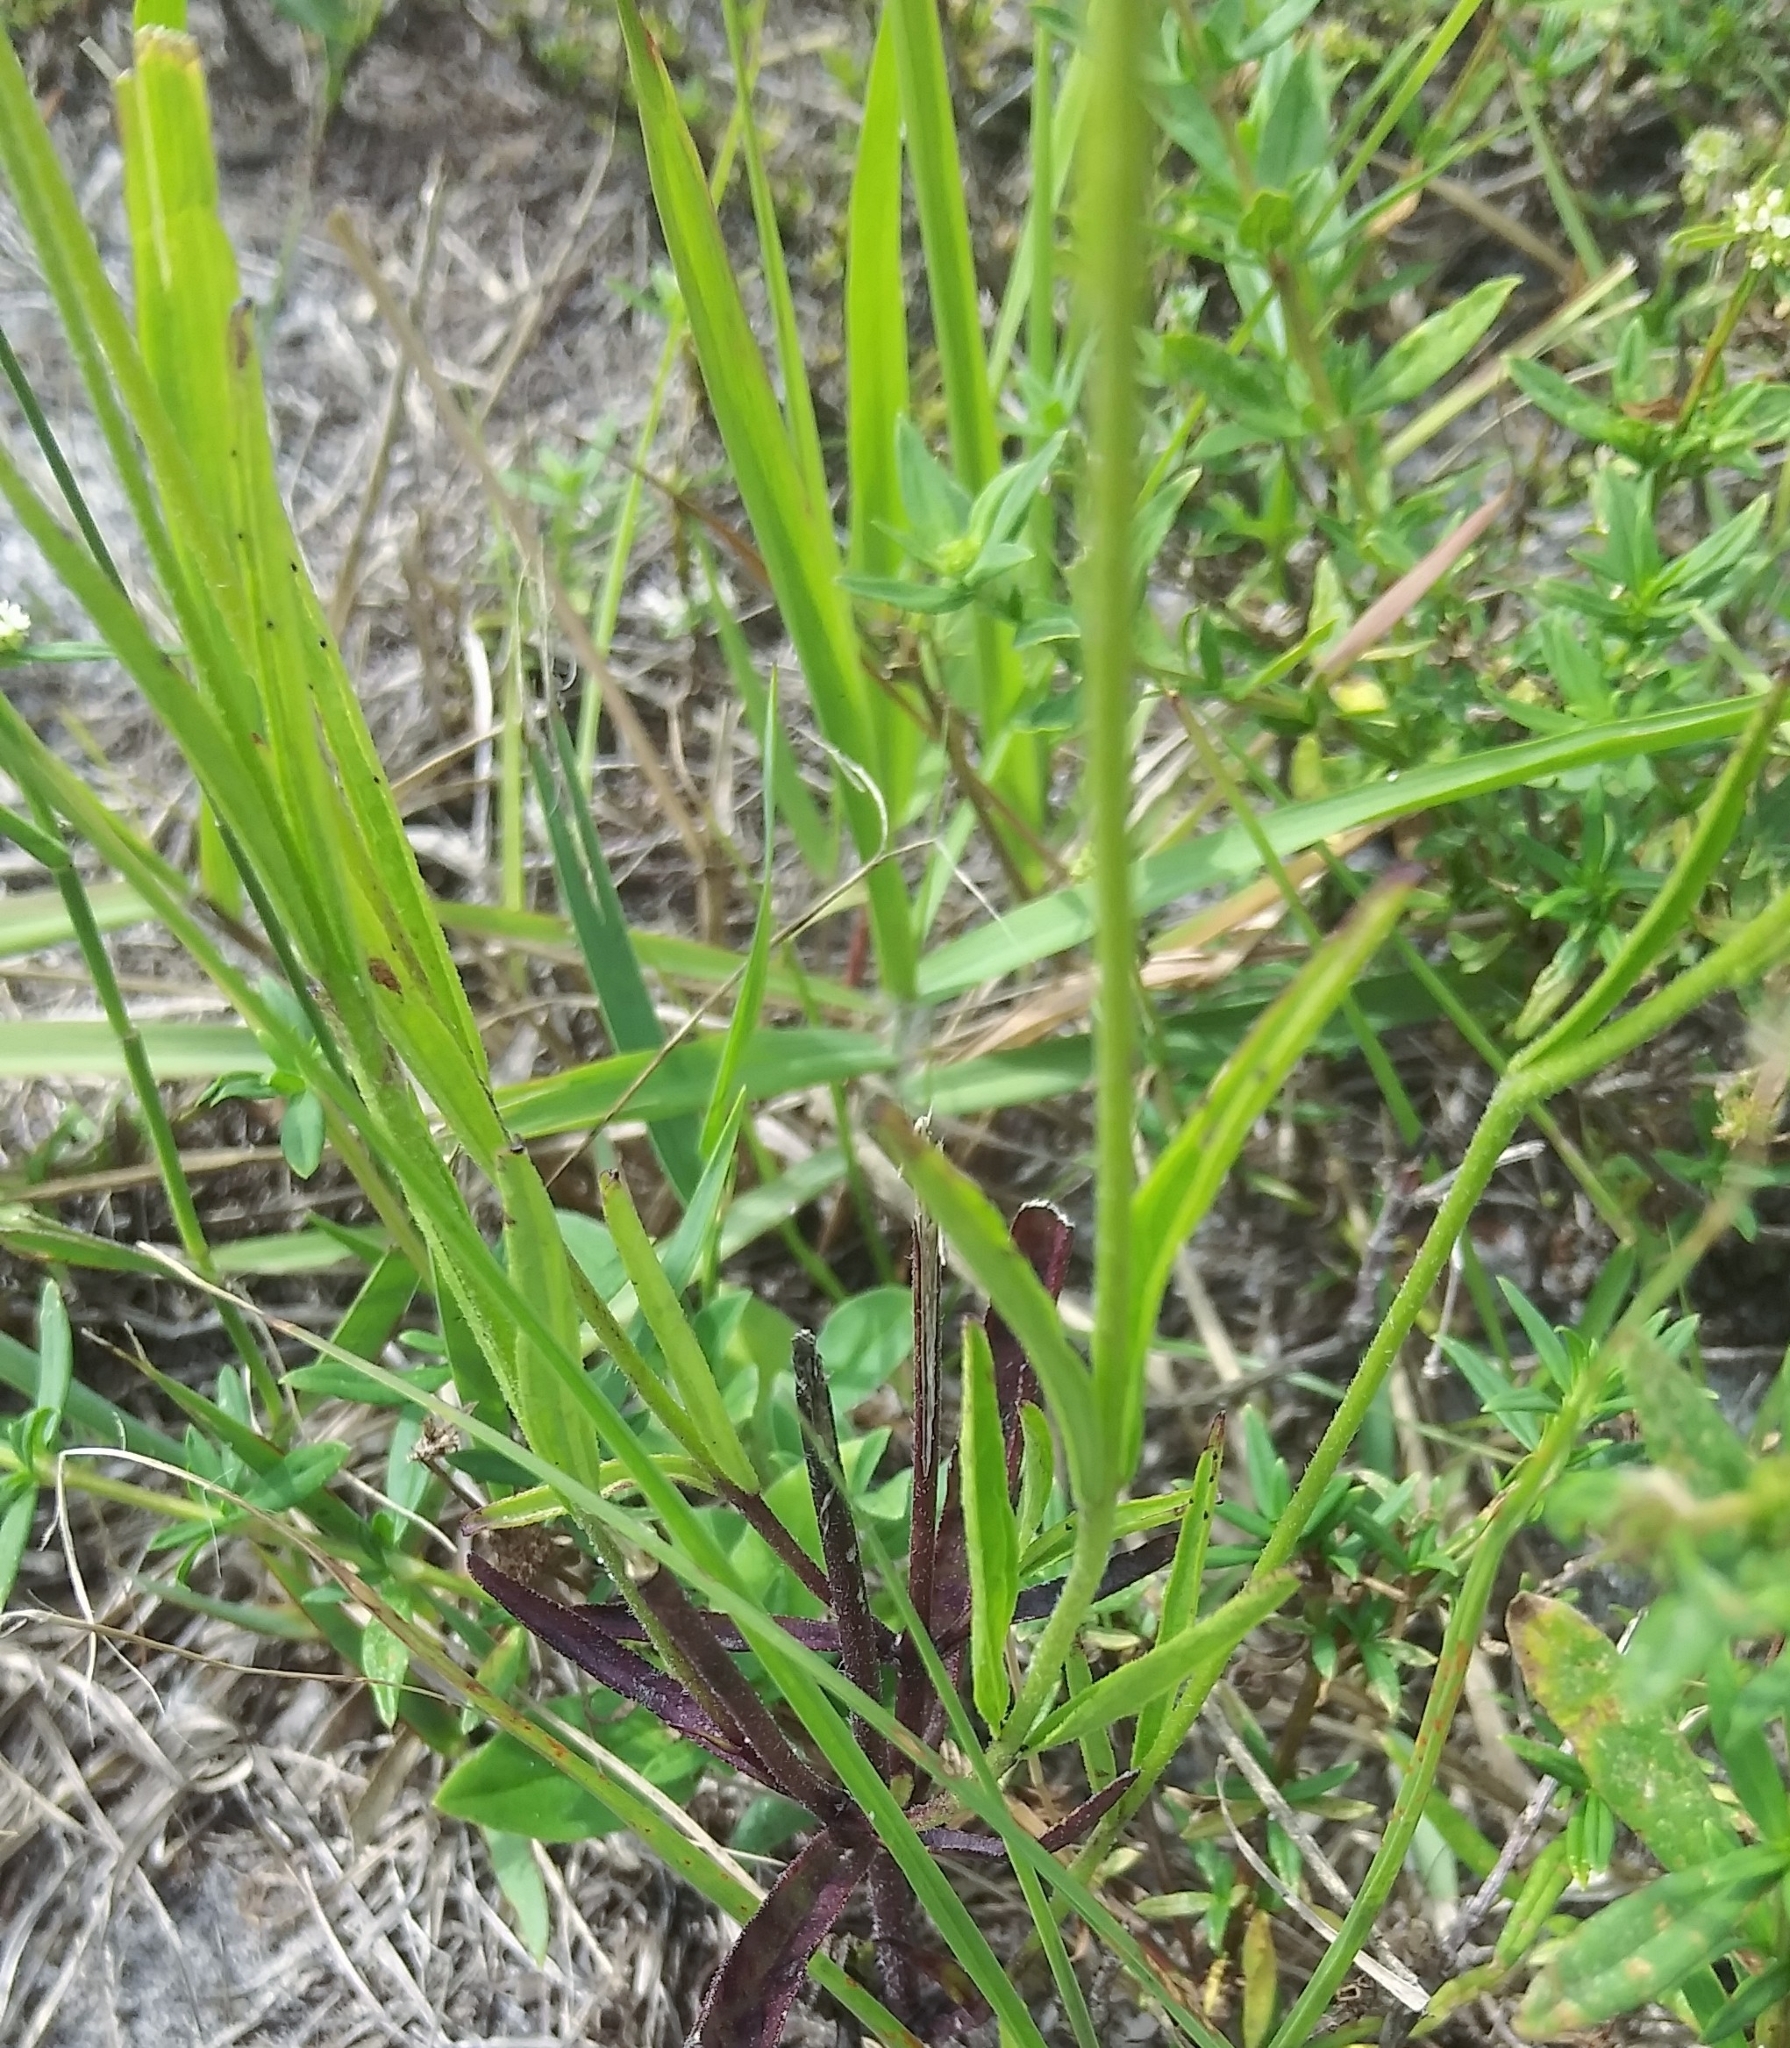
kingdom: Plantae
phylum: Tracheophyta
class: Magnoliopsida
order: Lamiales
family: Orobanchaceae
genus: Buchnera
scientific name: Buchnera floridana
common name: Florida bluehearts
